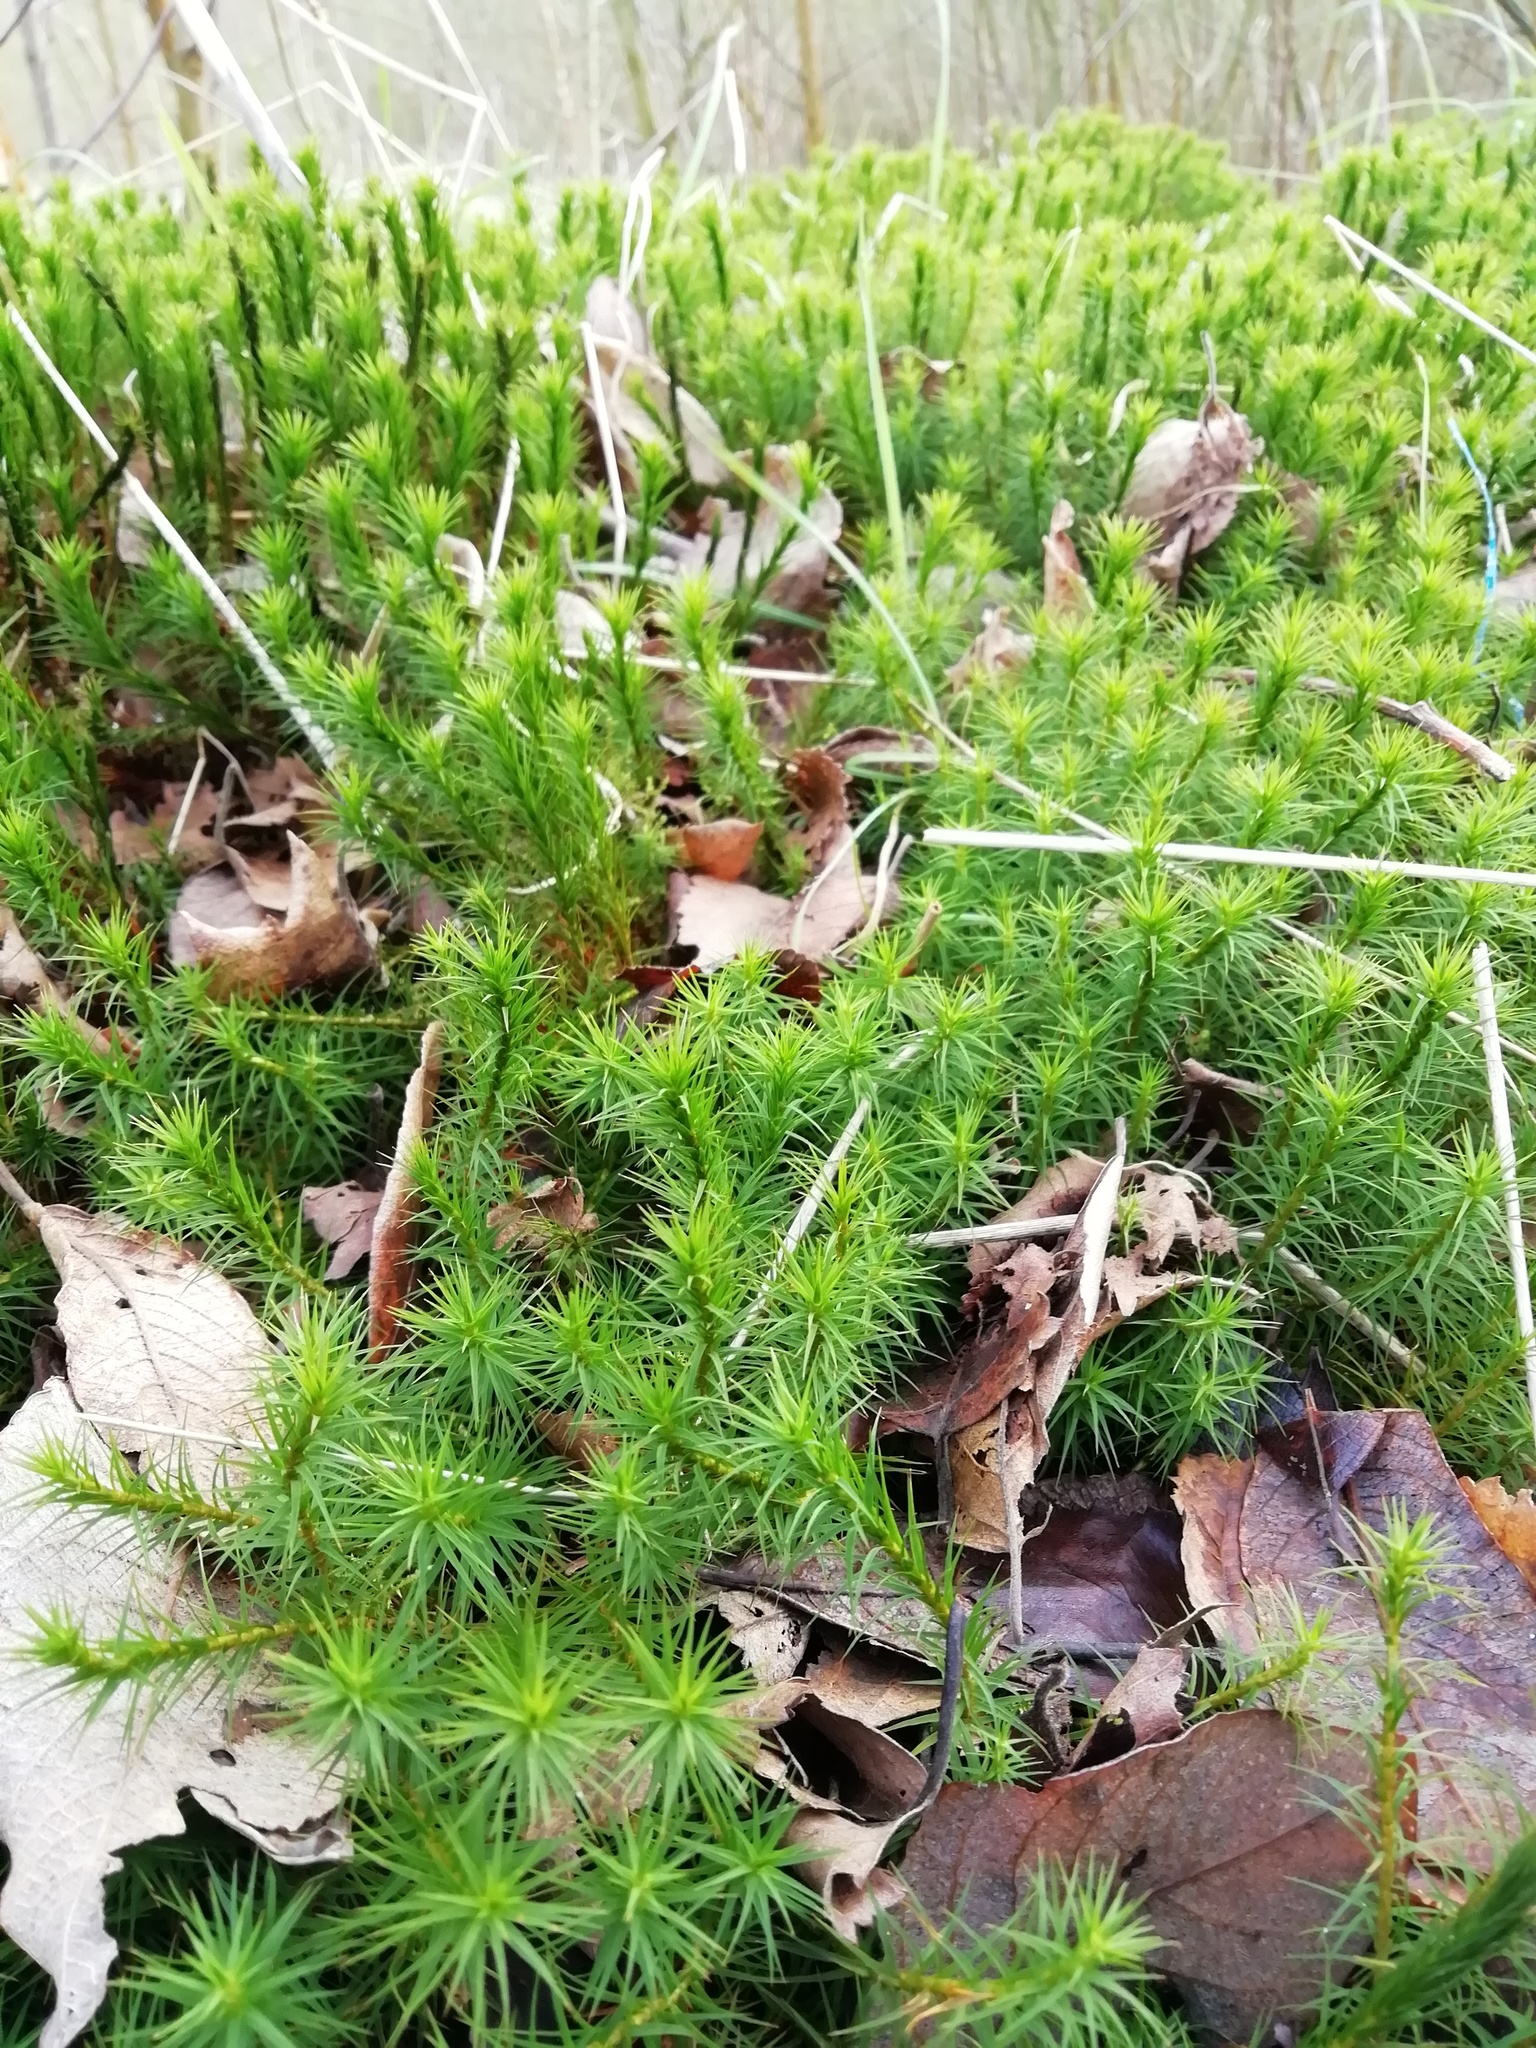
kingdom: Plantae
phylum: Bryophyta
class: Polytrichopsida
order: Polytrichales
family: Polytrichaceae
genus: Polytrichum
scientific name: Polytrichum formosum
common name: Bank haircap moss
